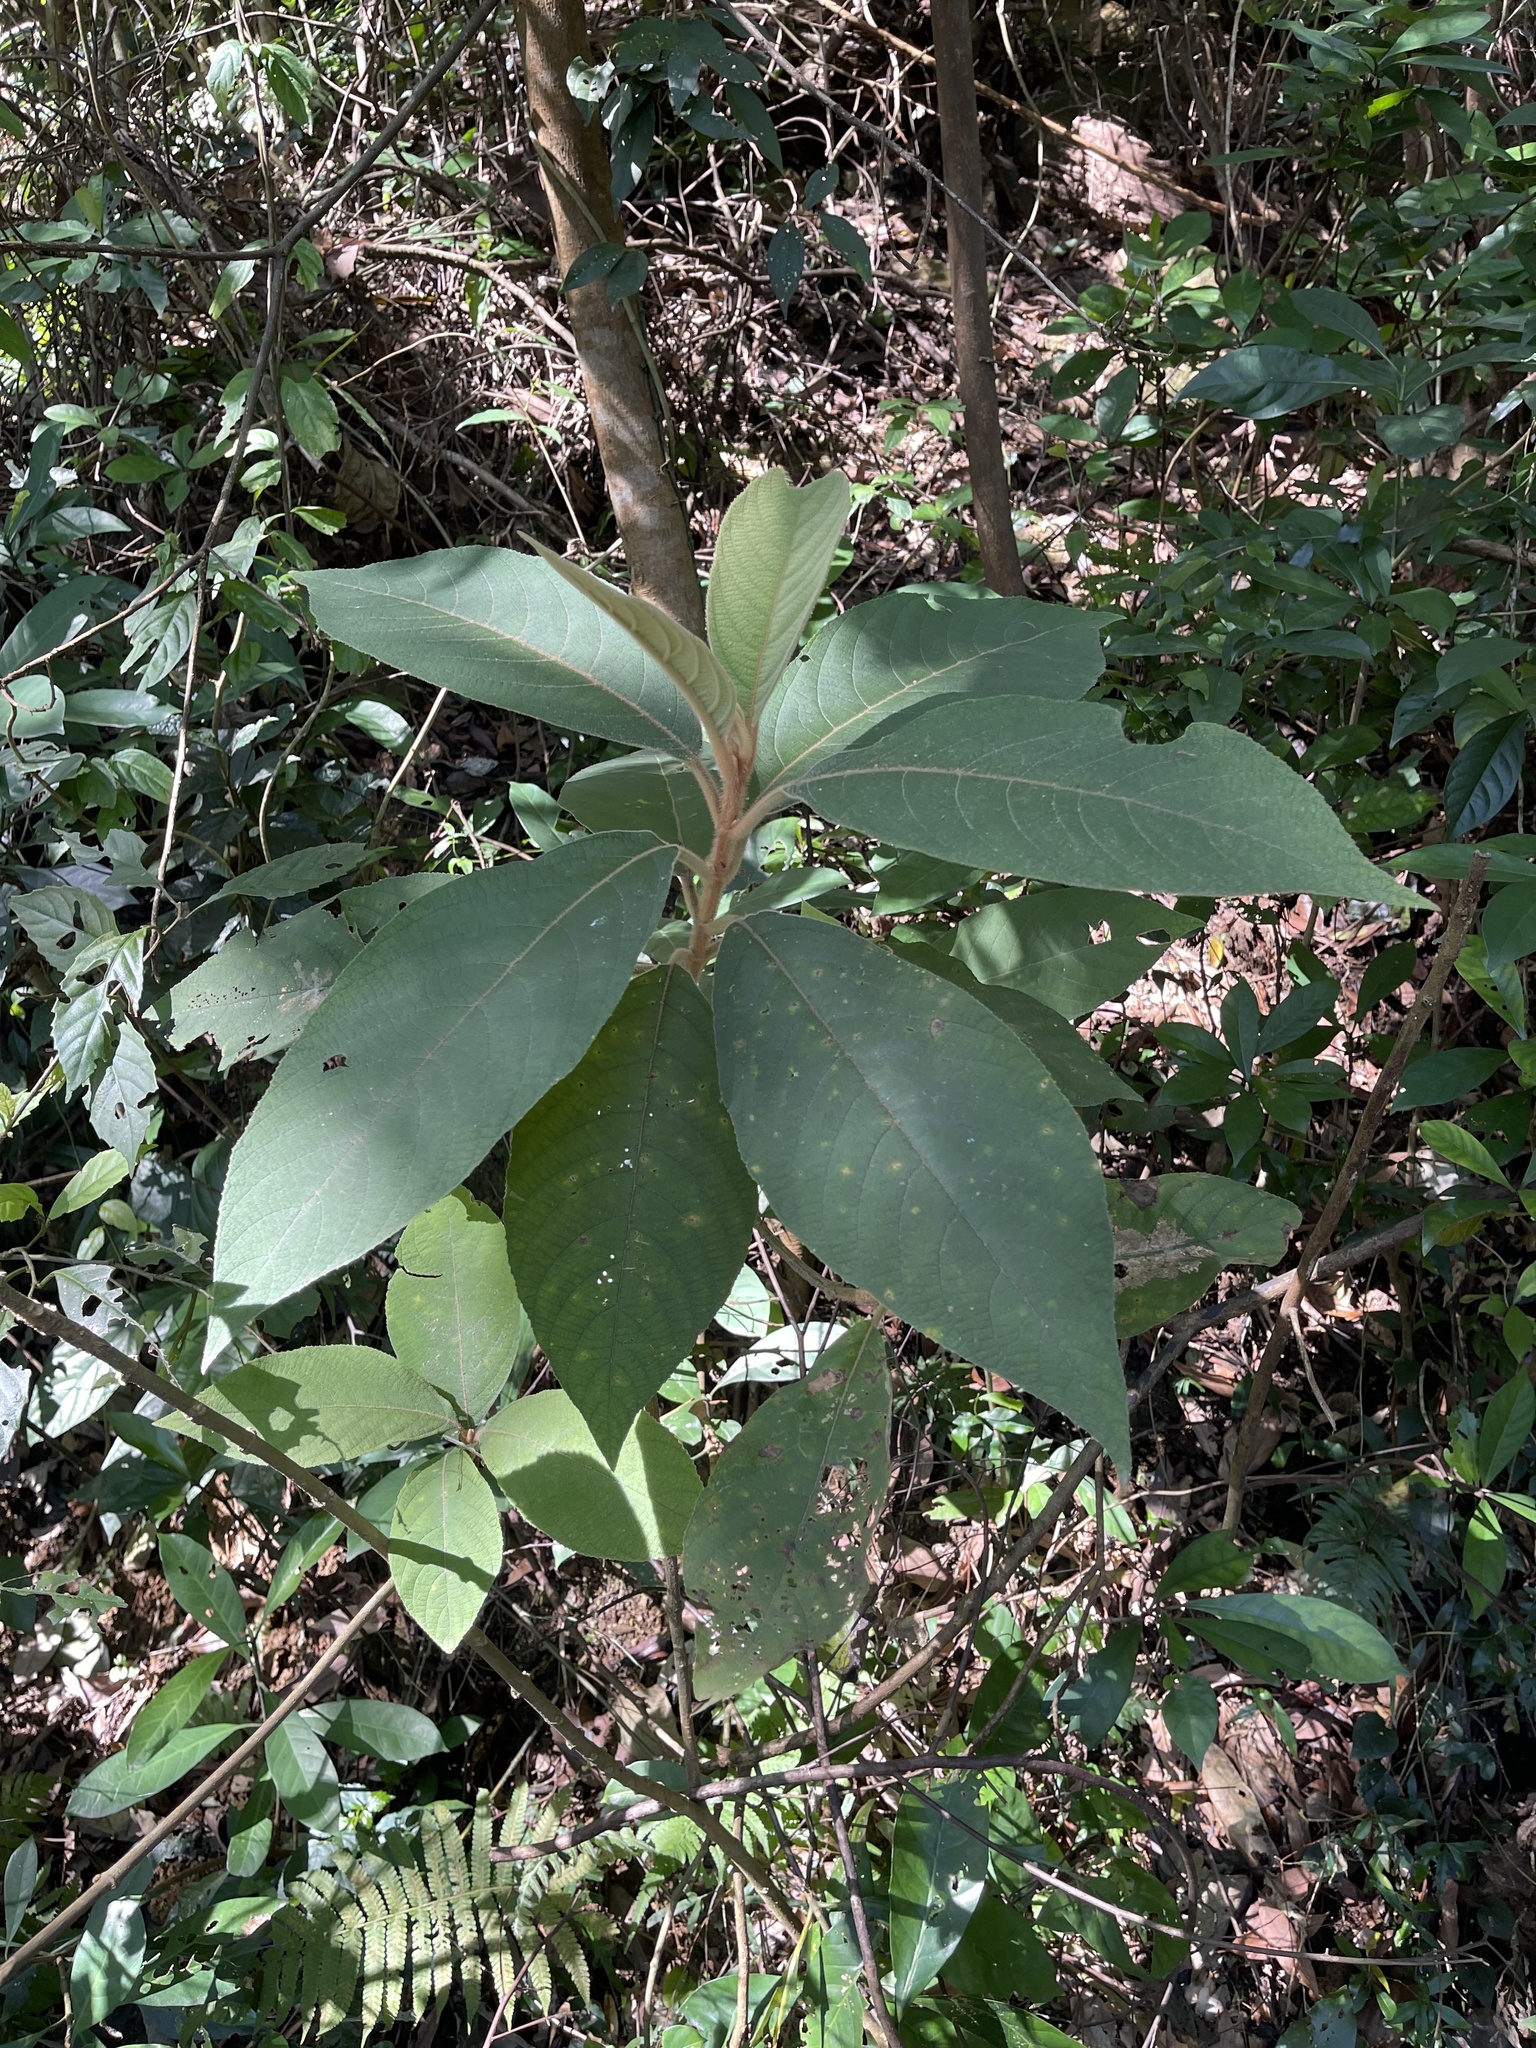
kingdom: Plantae
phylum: Tracheophyta
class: Magnoliopsida
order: Lamiales
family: Lamiaceae
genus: Callicarpa
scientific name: Callicarpa kochiana
